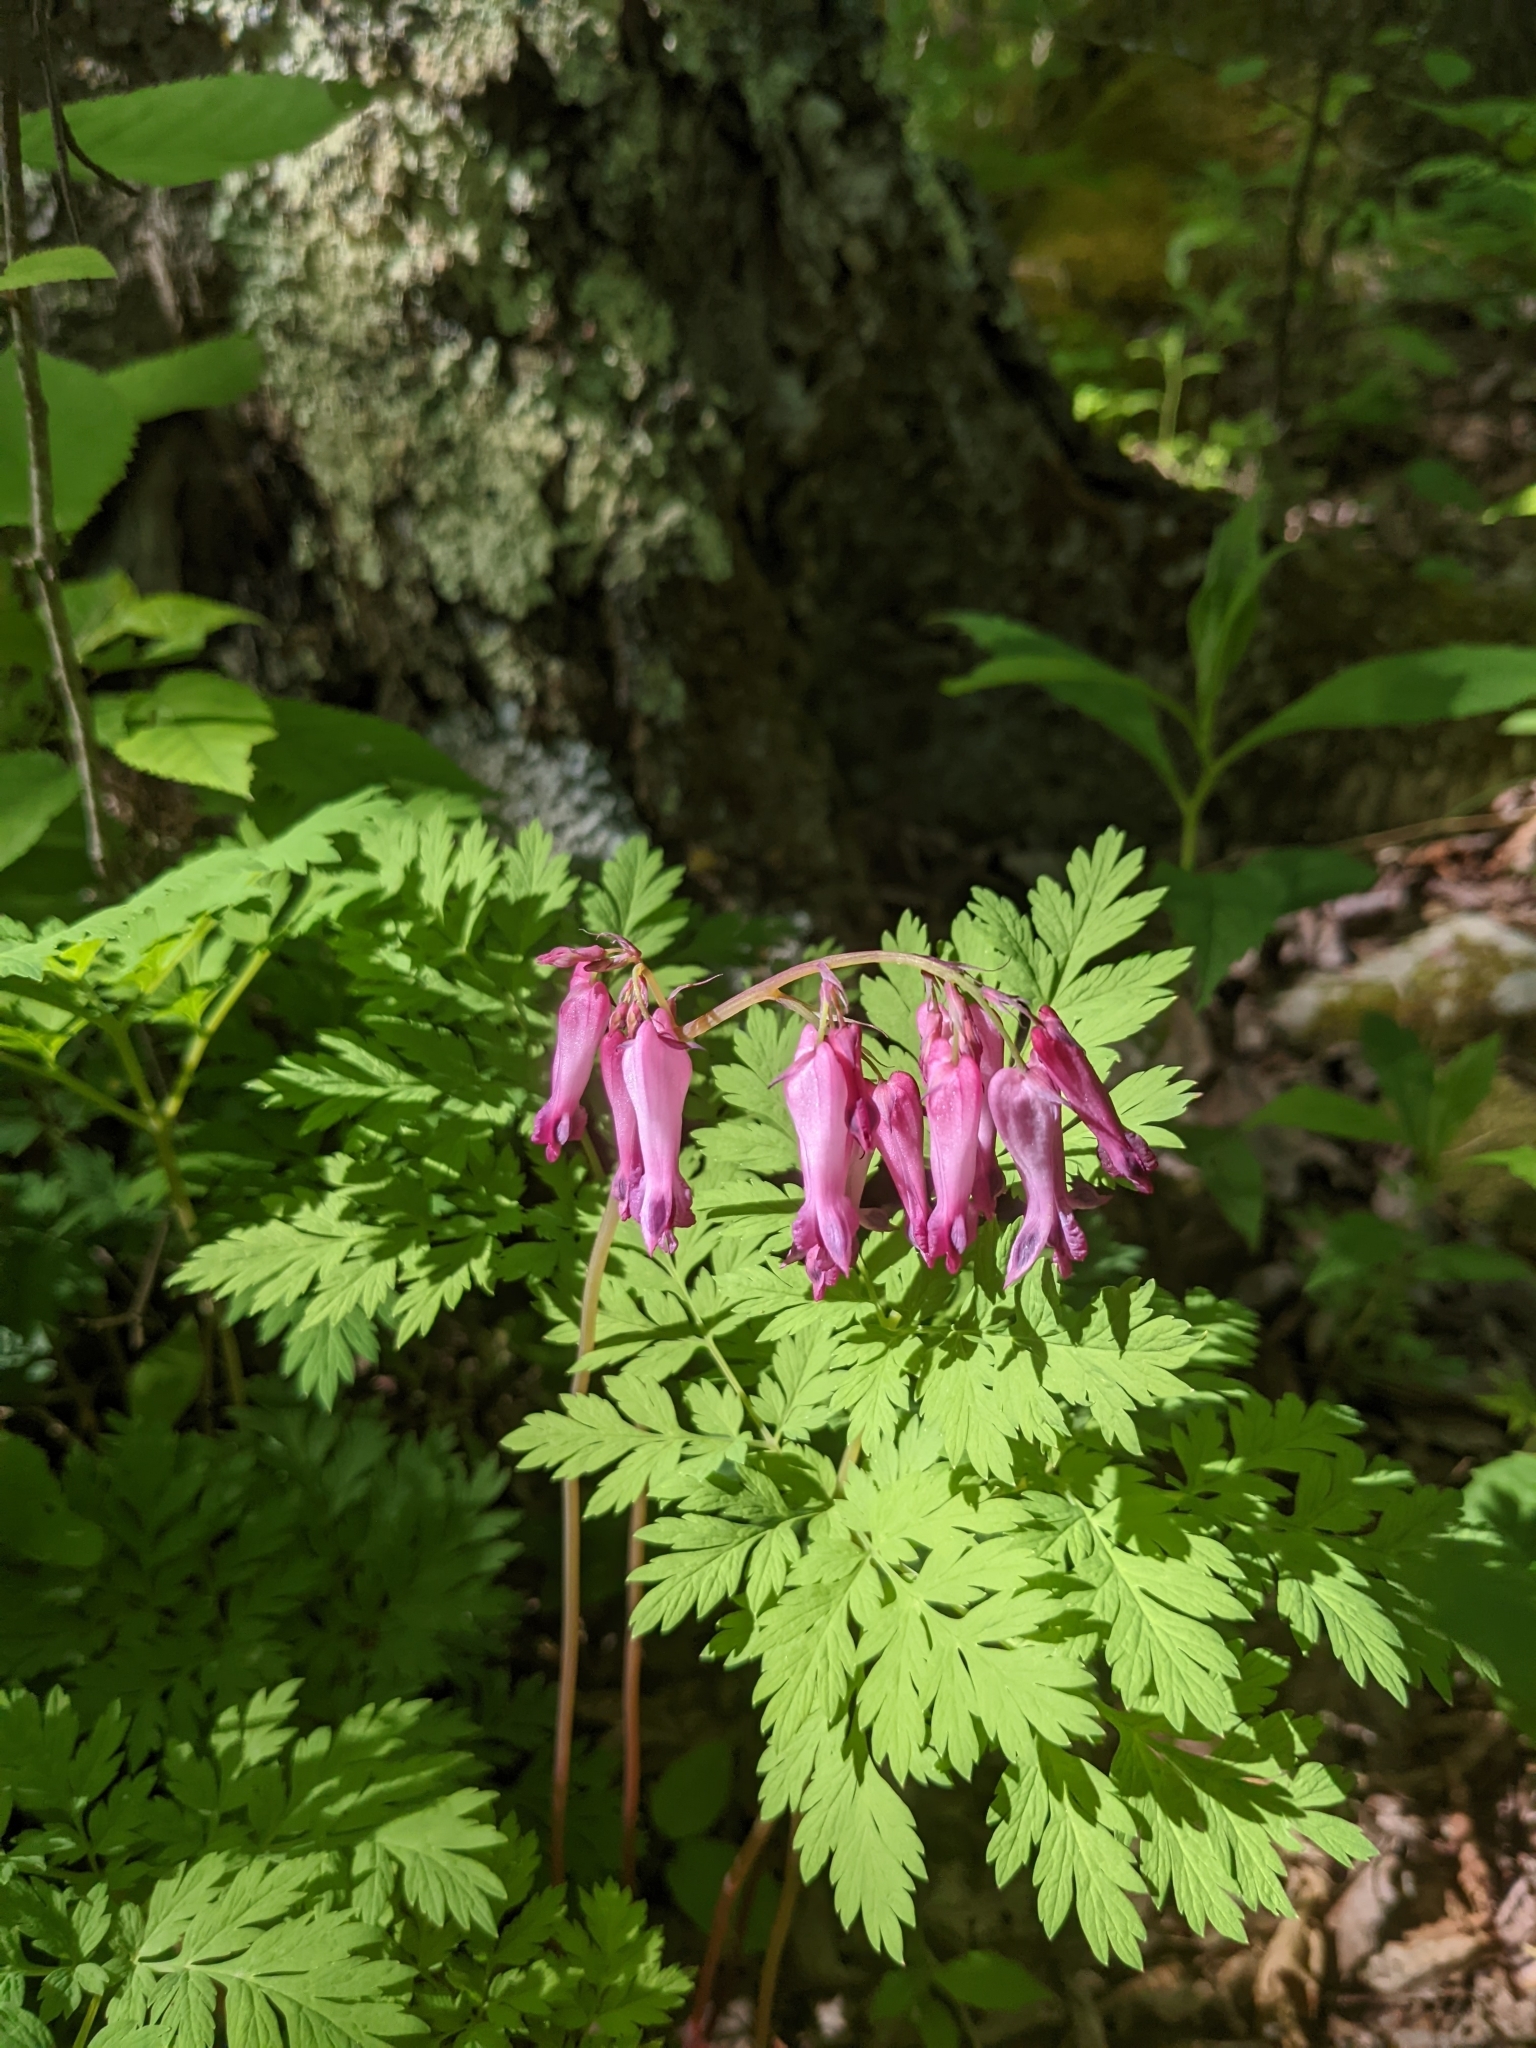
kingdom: Plantae
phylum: Tracheophyta
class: Magnoliopsida
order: Ranunculales
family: Papaveraceae
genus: Dicentra
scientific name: Dicentra eximia
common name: Turkey-corn
